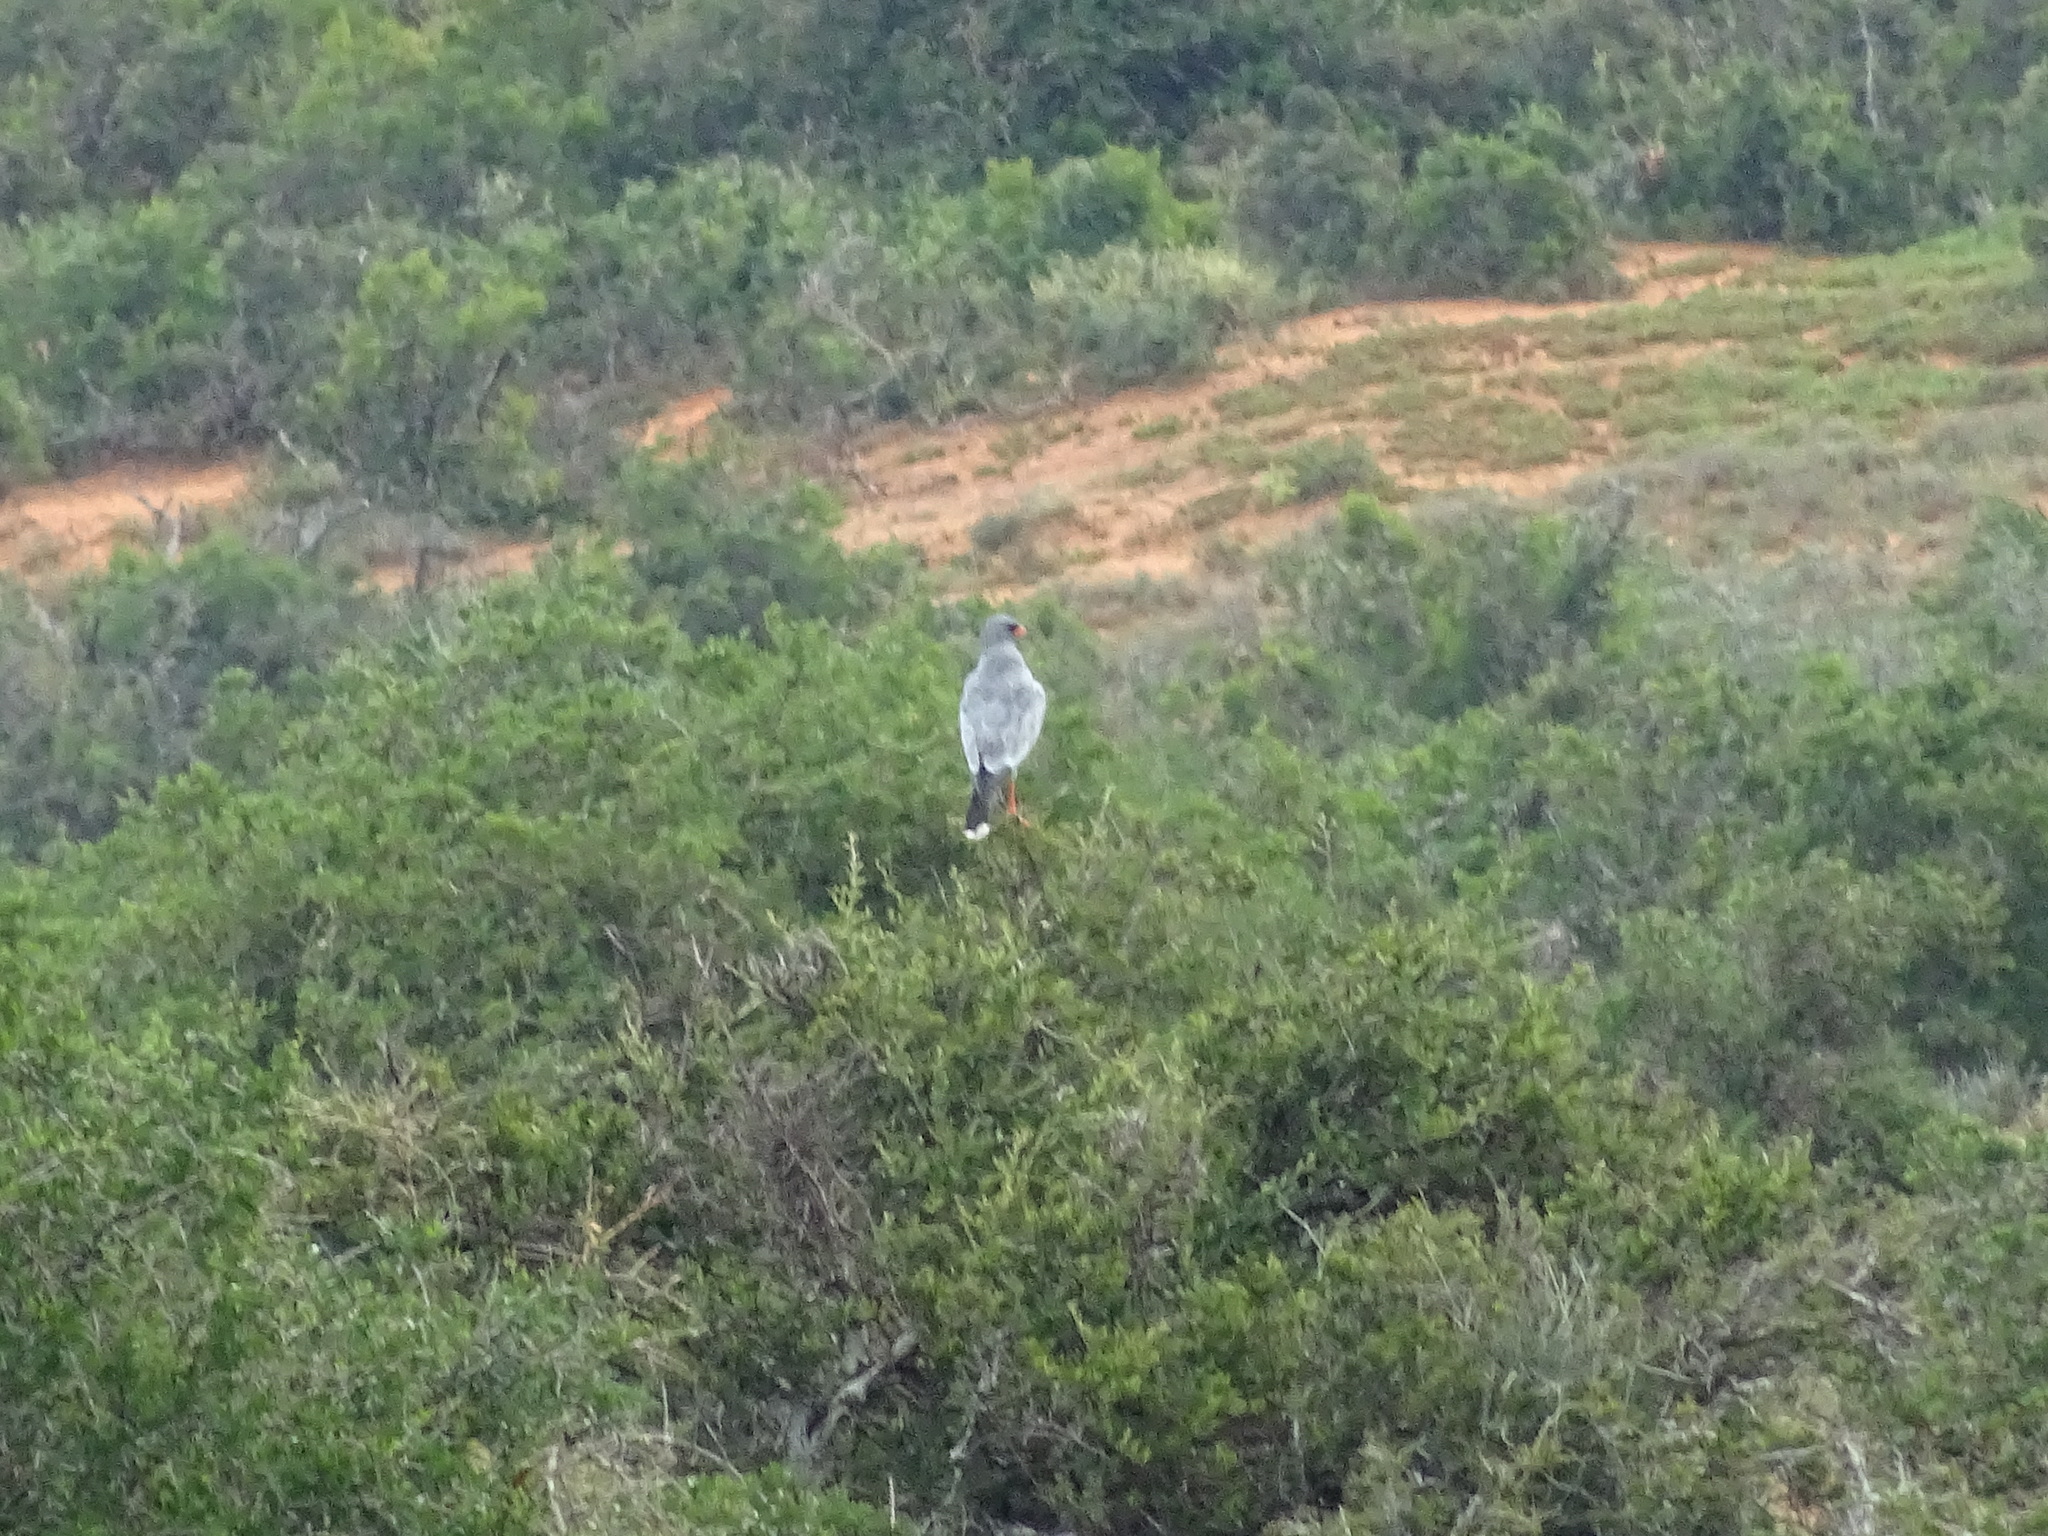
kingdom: Animalia
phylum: Chordata
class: Aves
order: Accipitriformes
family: Accipitridae
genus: Melierax
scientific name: Melierax canorus
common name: Pale chanting-goshawk
